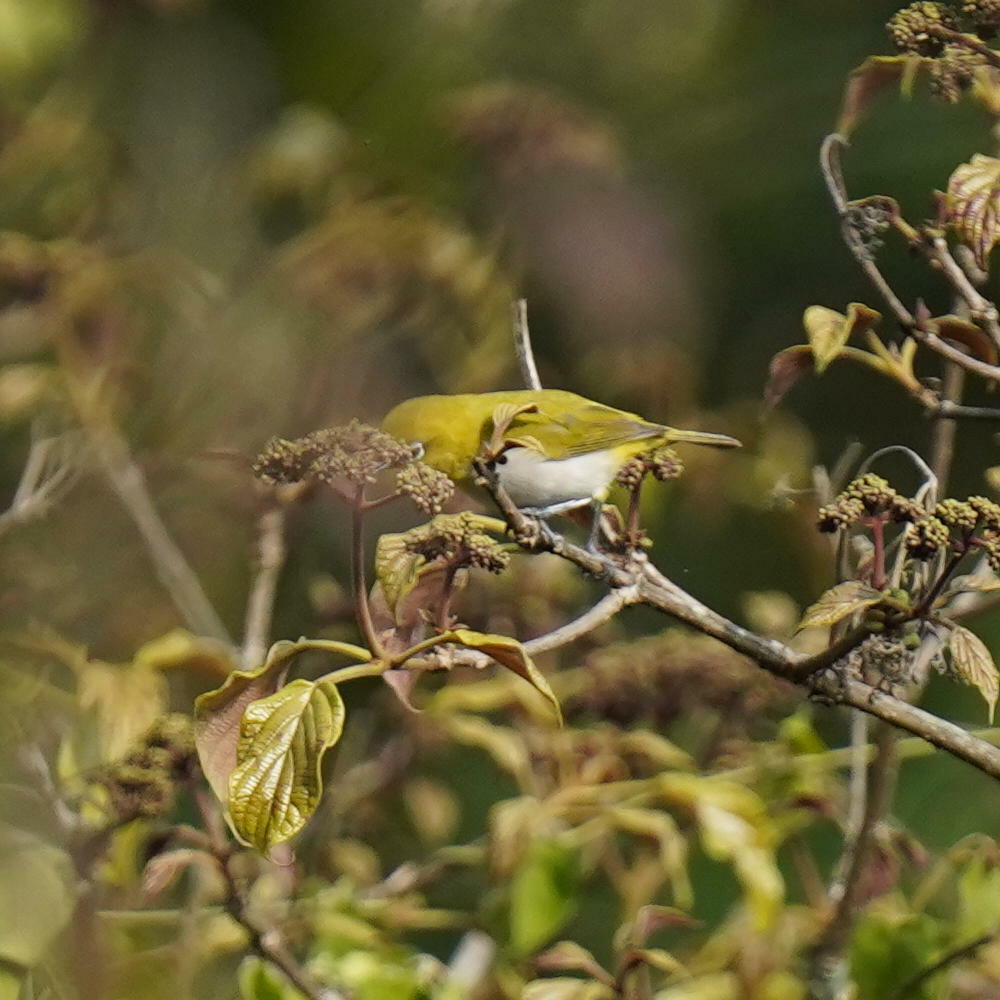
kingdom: Animalia
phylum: Chordata
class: Aves
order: Passeriformes
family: Zosteropidae
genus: Zosterops
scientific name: Zosterops palpebrosus
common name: Oriental white-eye
